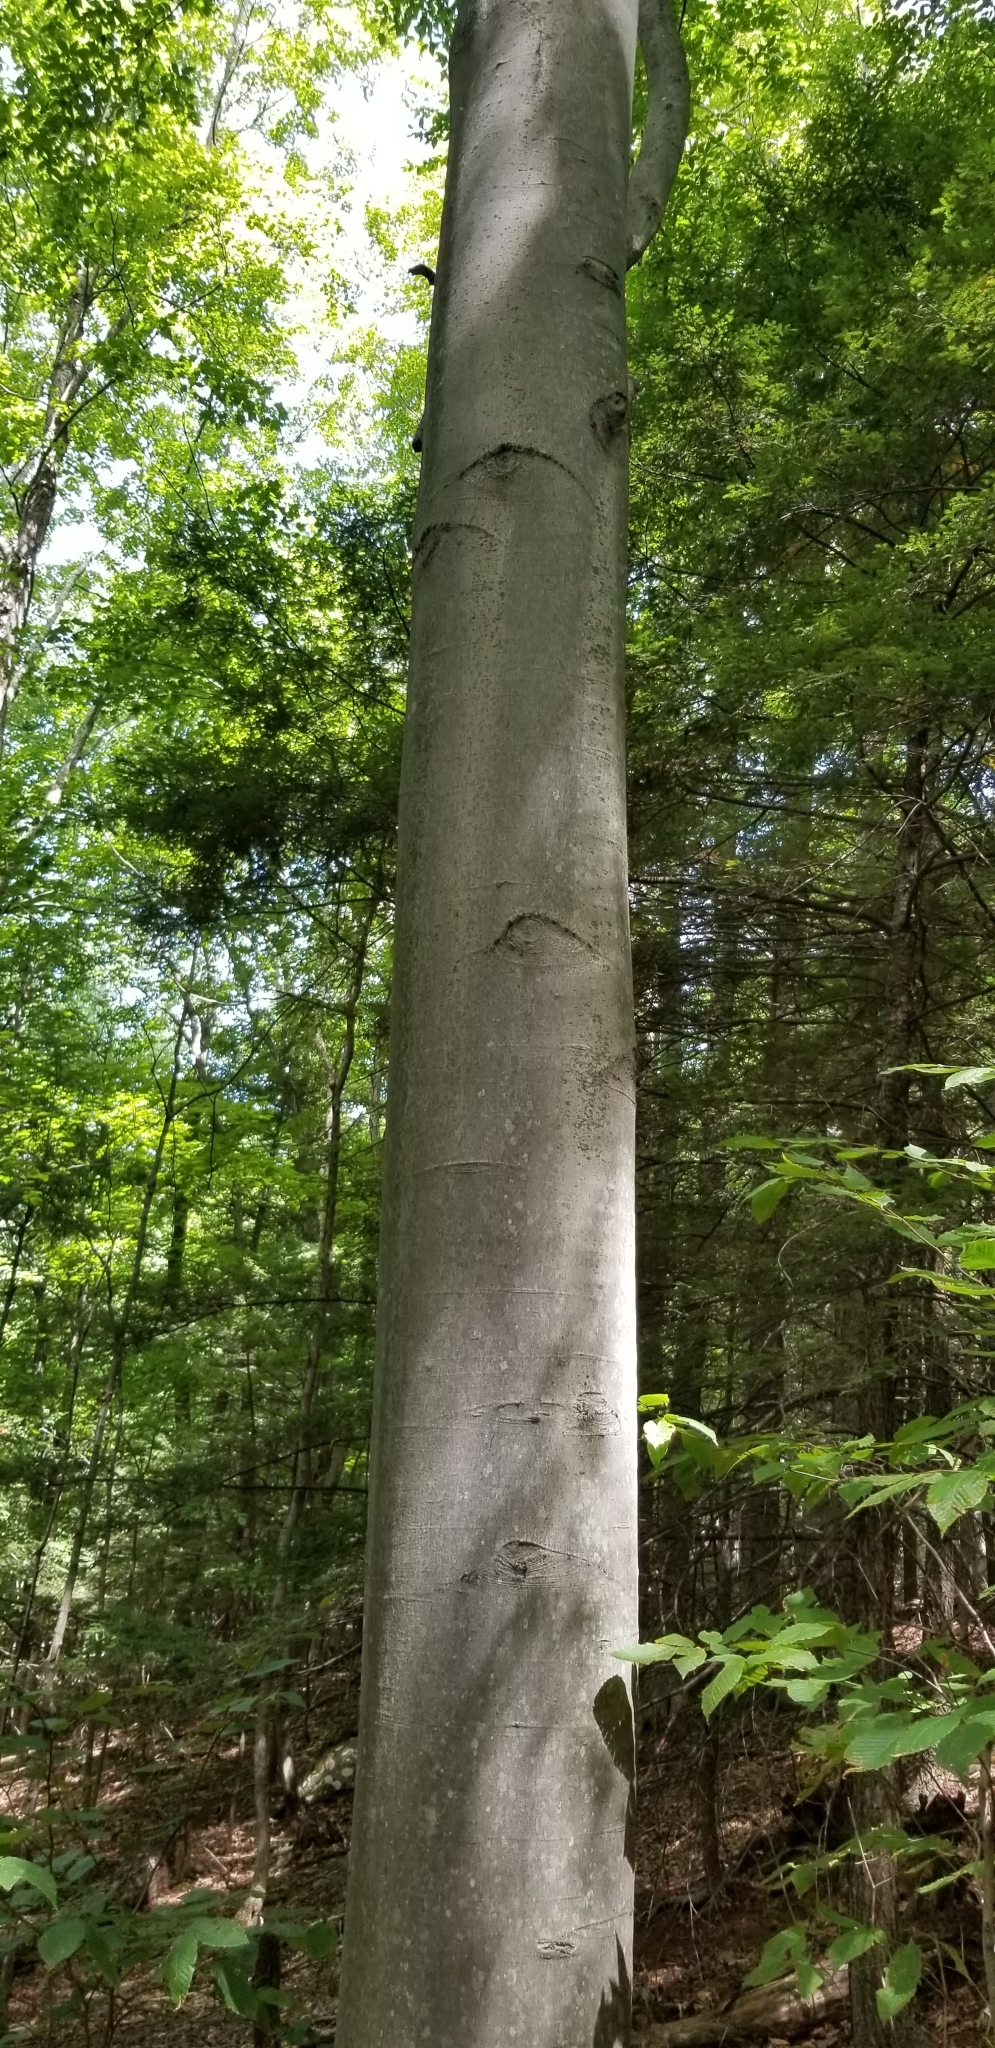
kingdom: Plantae
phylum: Tracheophyta
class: Magnoliopsida
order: Fagales
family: Fagaceae
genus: Fagus
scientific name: Fagus grandifolia
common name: American beech
